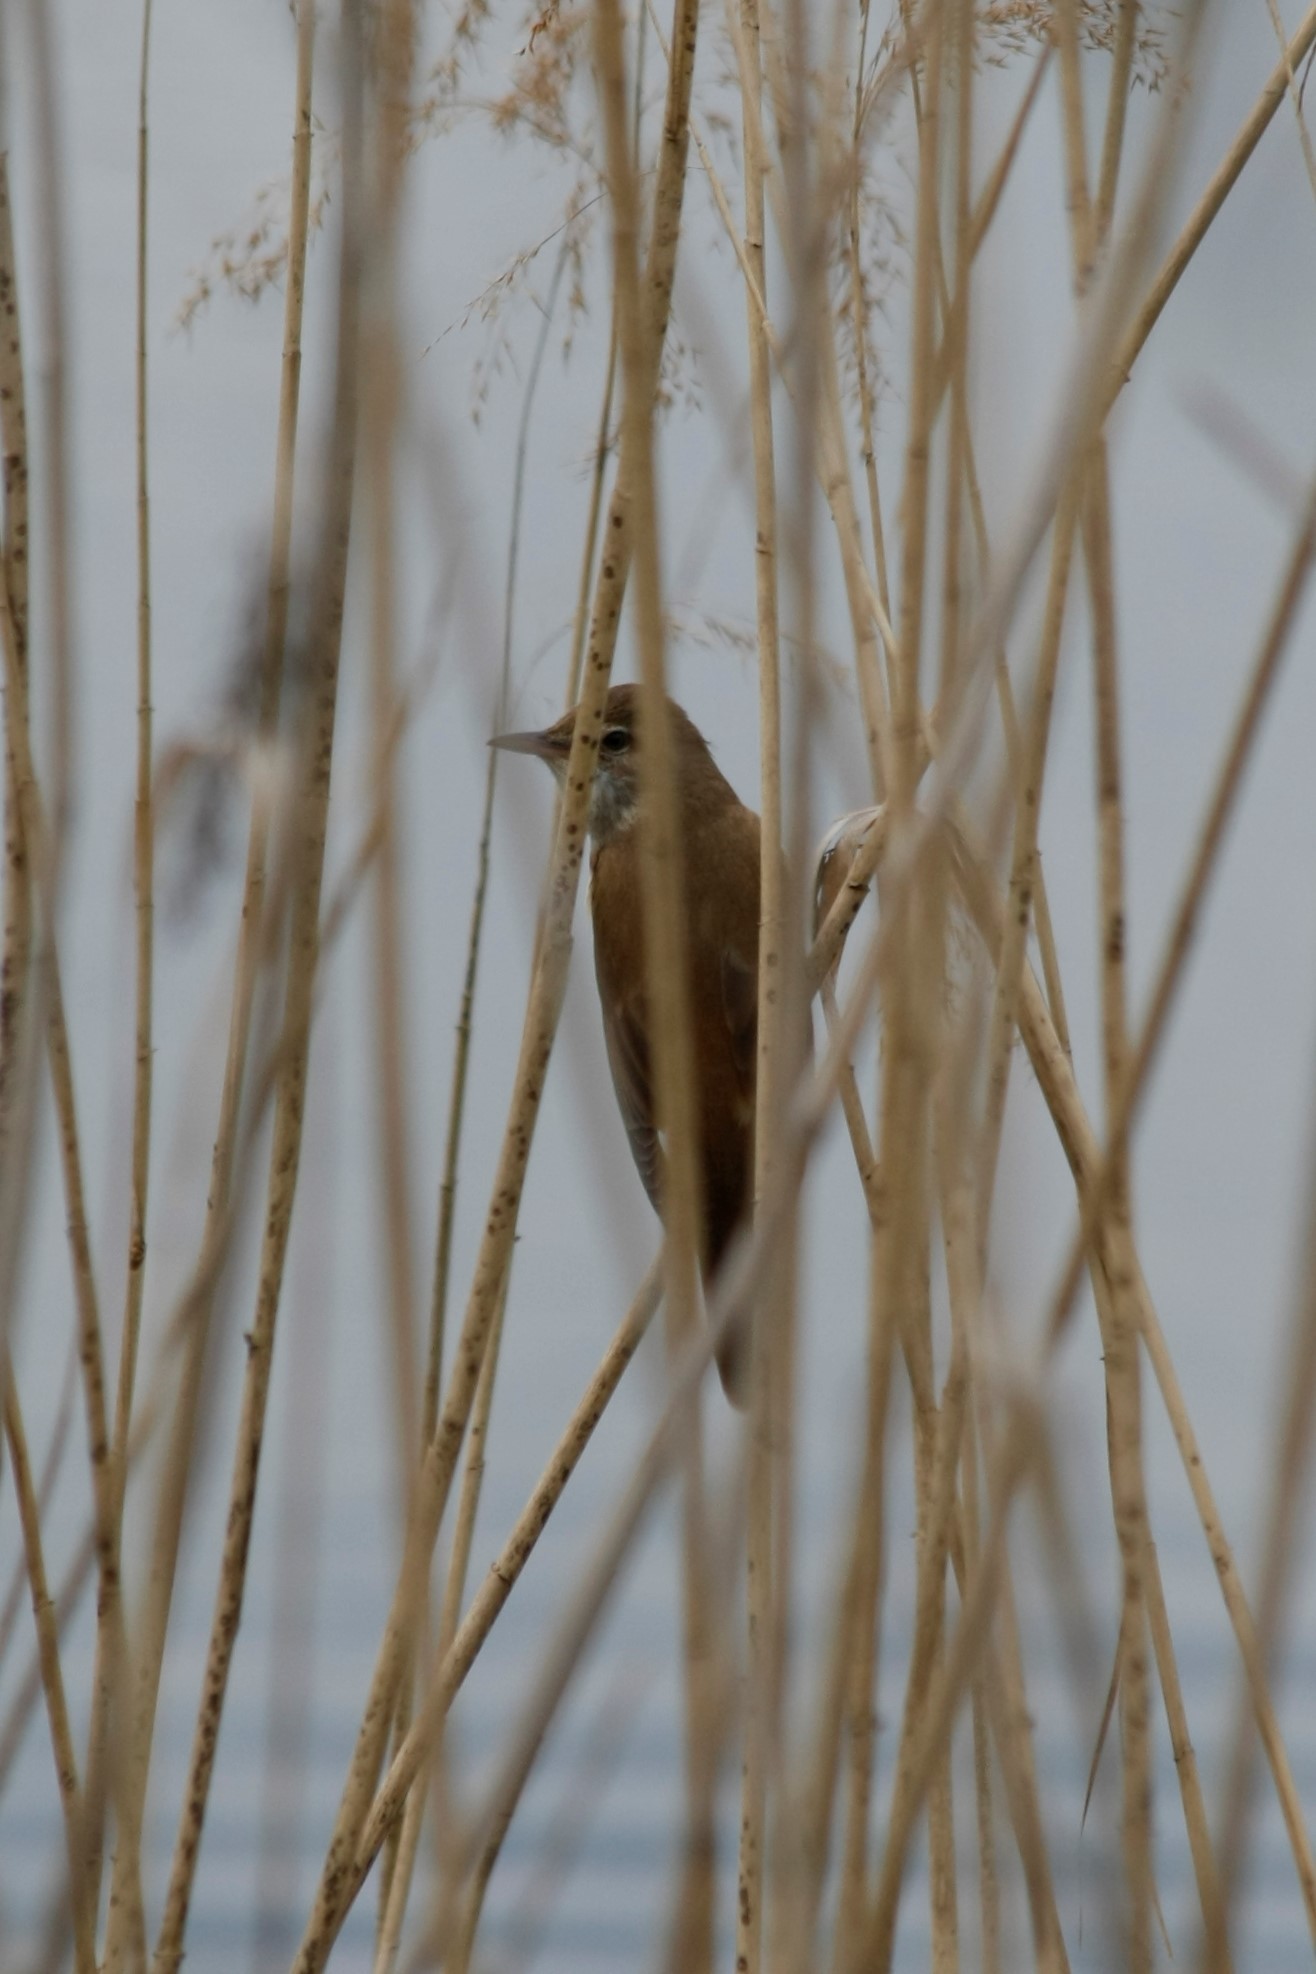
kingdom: Animalia
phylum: Chordata
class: Aves
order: Passeriformes
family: Acrocephalidae
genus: Acrocephalus
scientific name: Acrocephalus arundinaceus
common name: Great reed warbler
